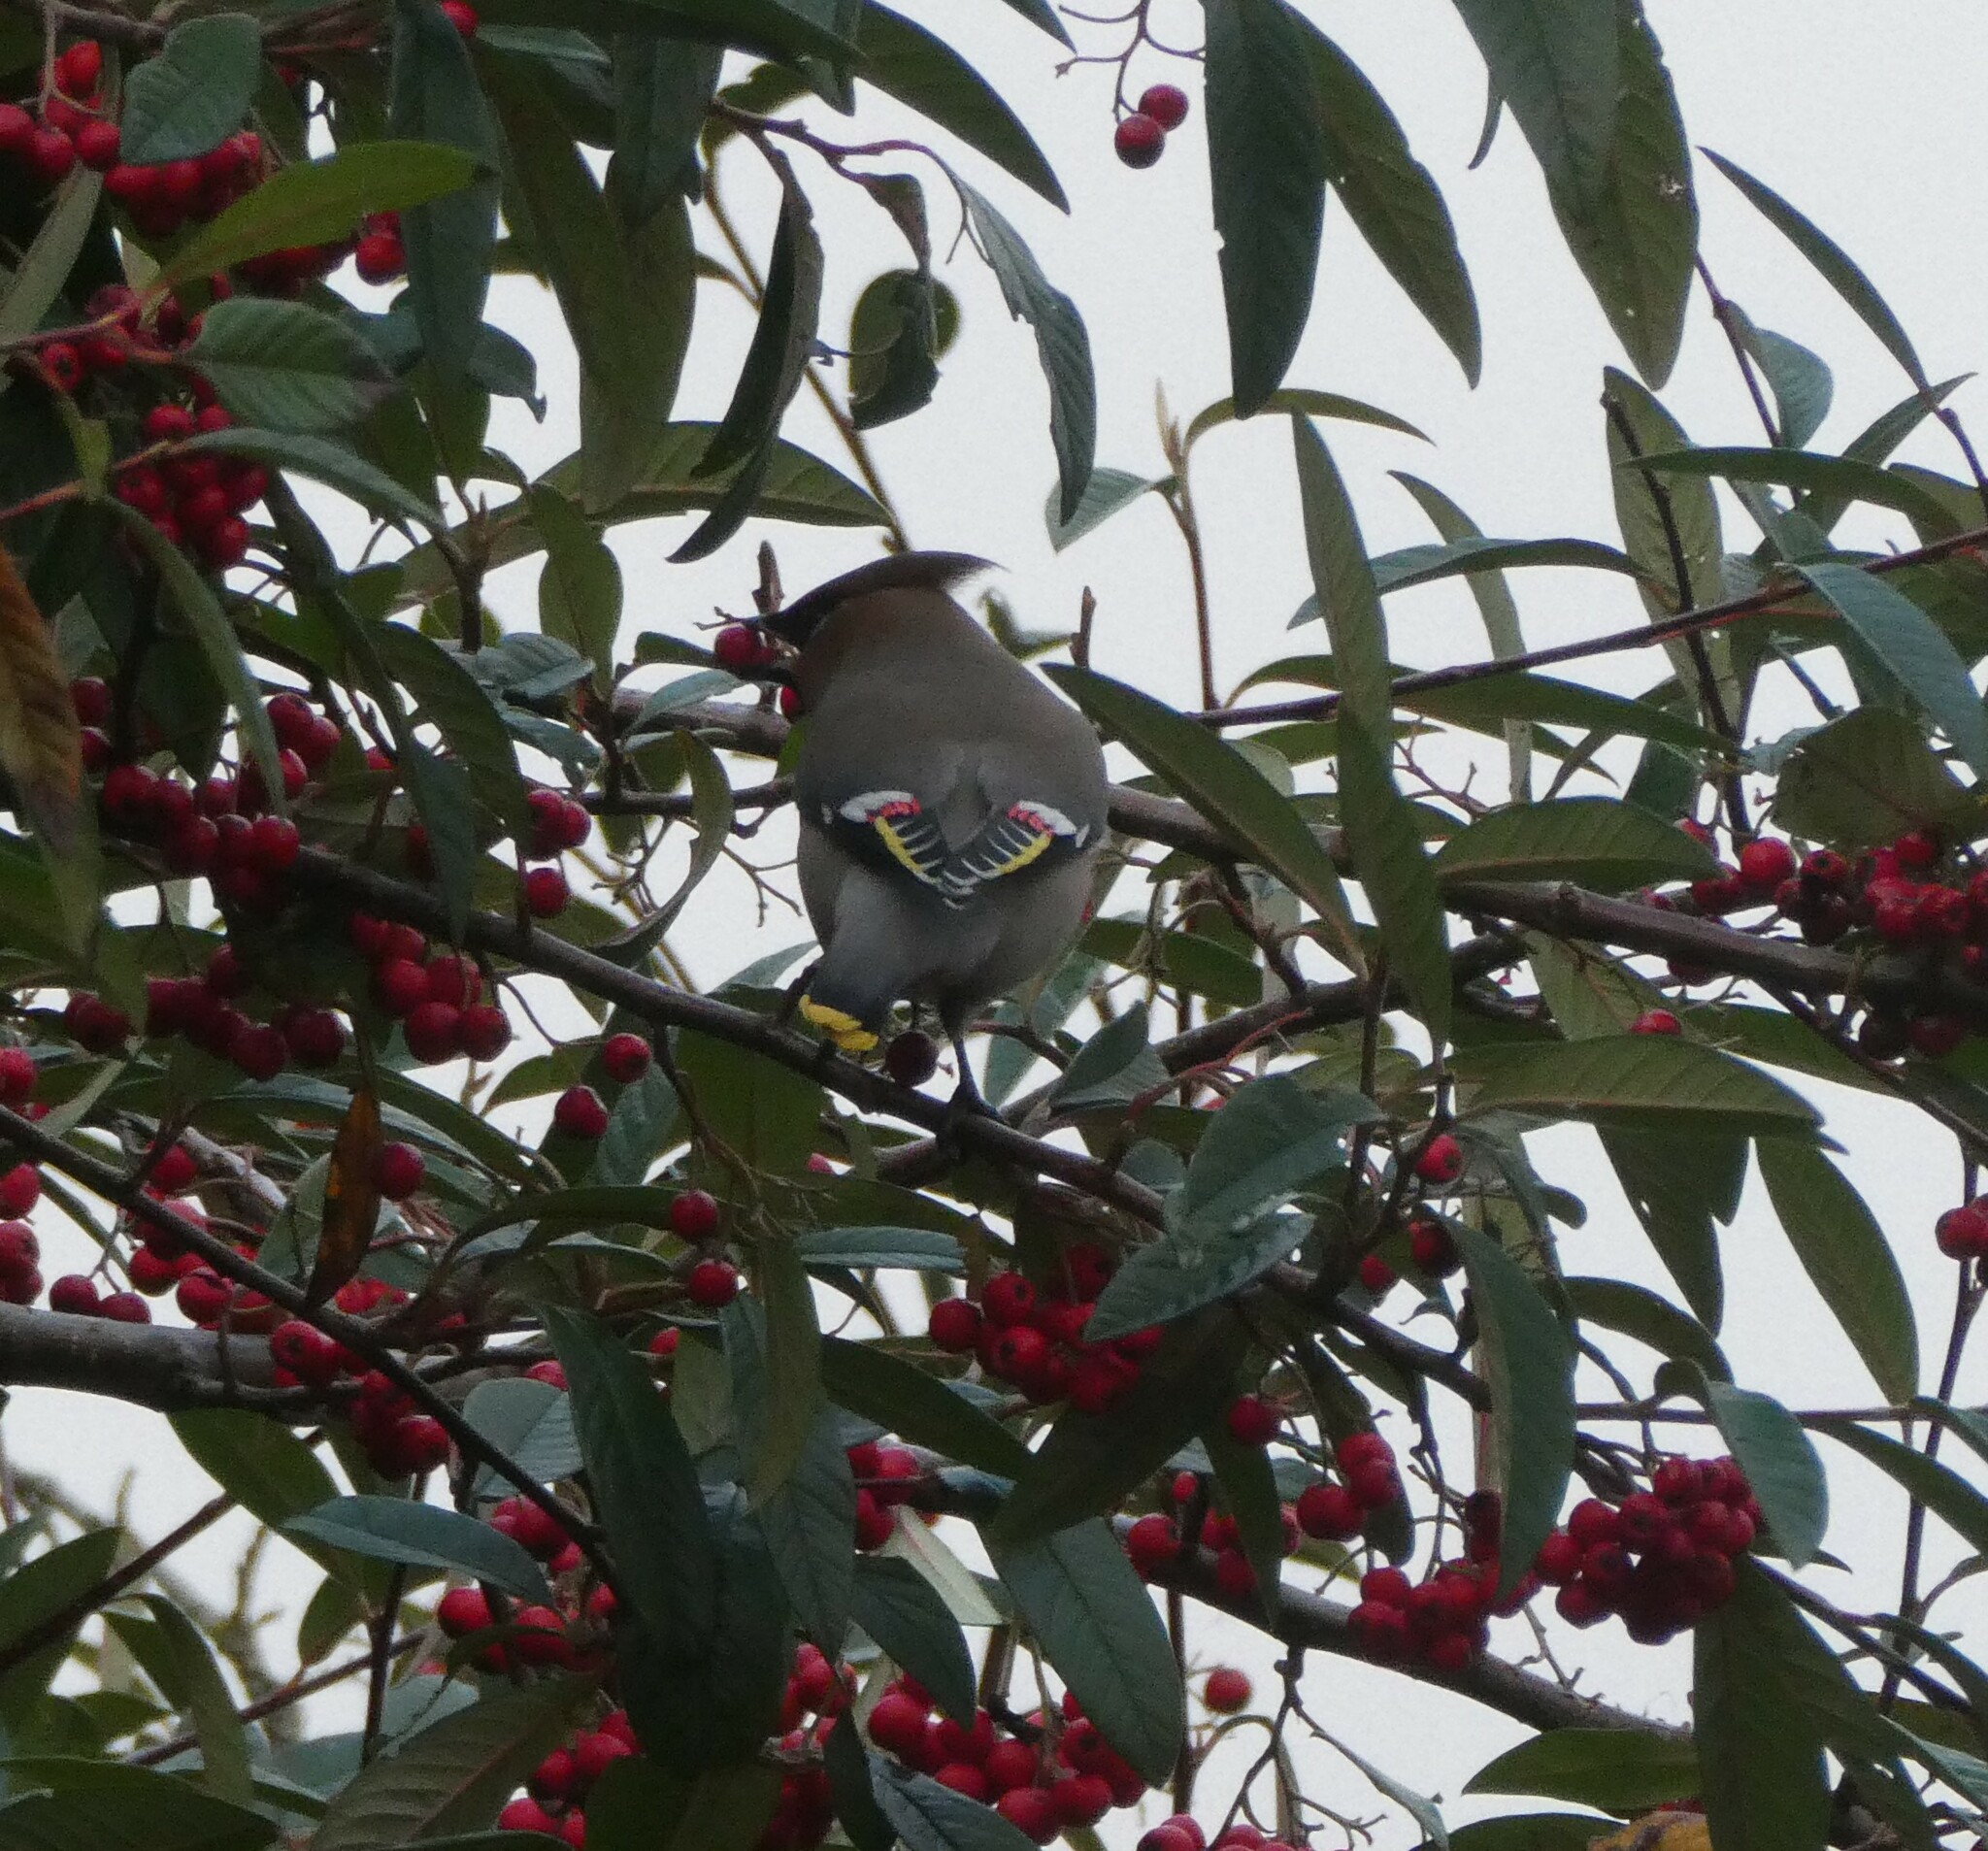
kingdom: Animalia
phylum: Chordata
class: Aves
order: Passeriformes
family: Bombycillidae
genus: Bombycilla
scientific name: Bombycilla garrulus
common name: Bohemian waxwing
